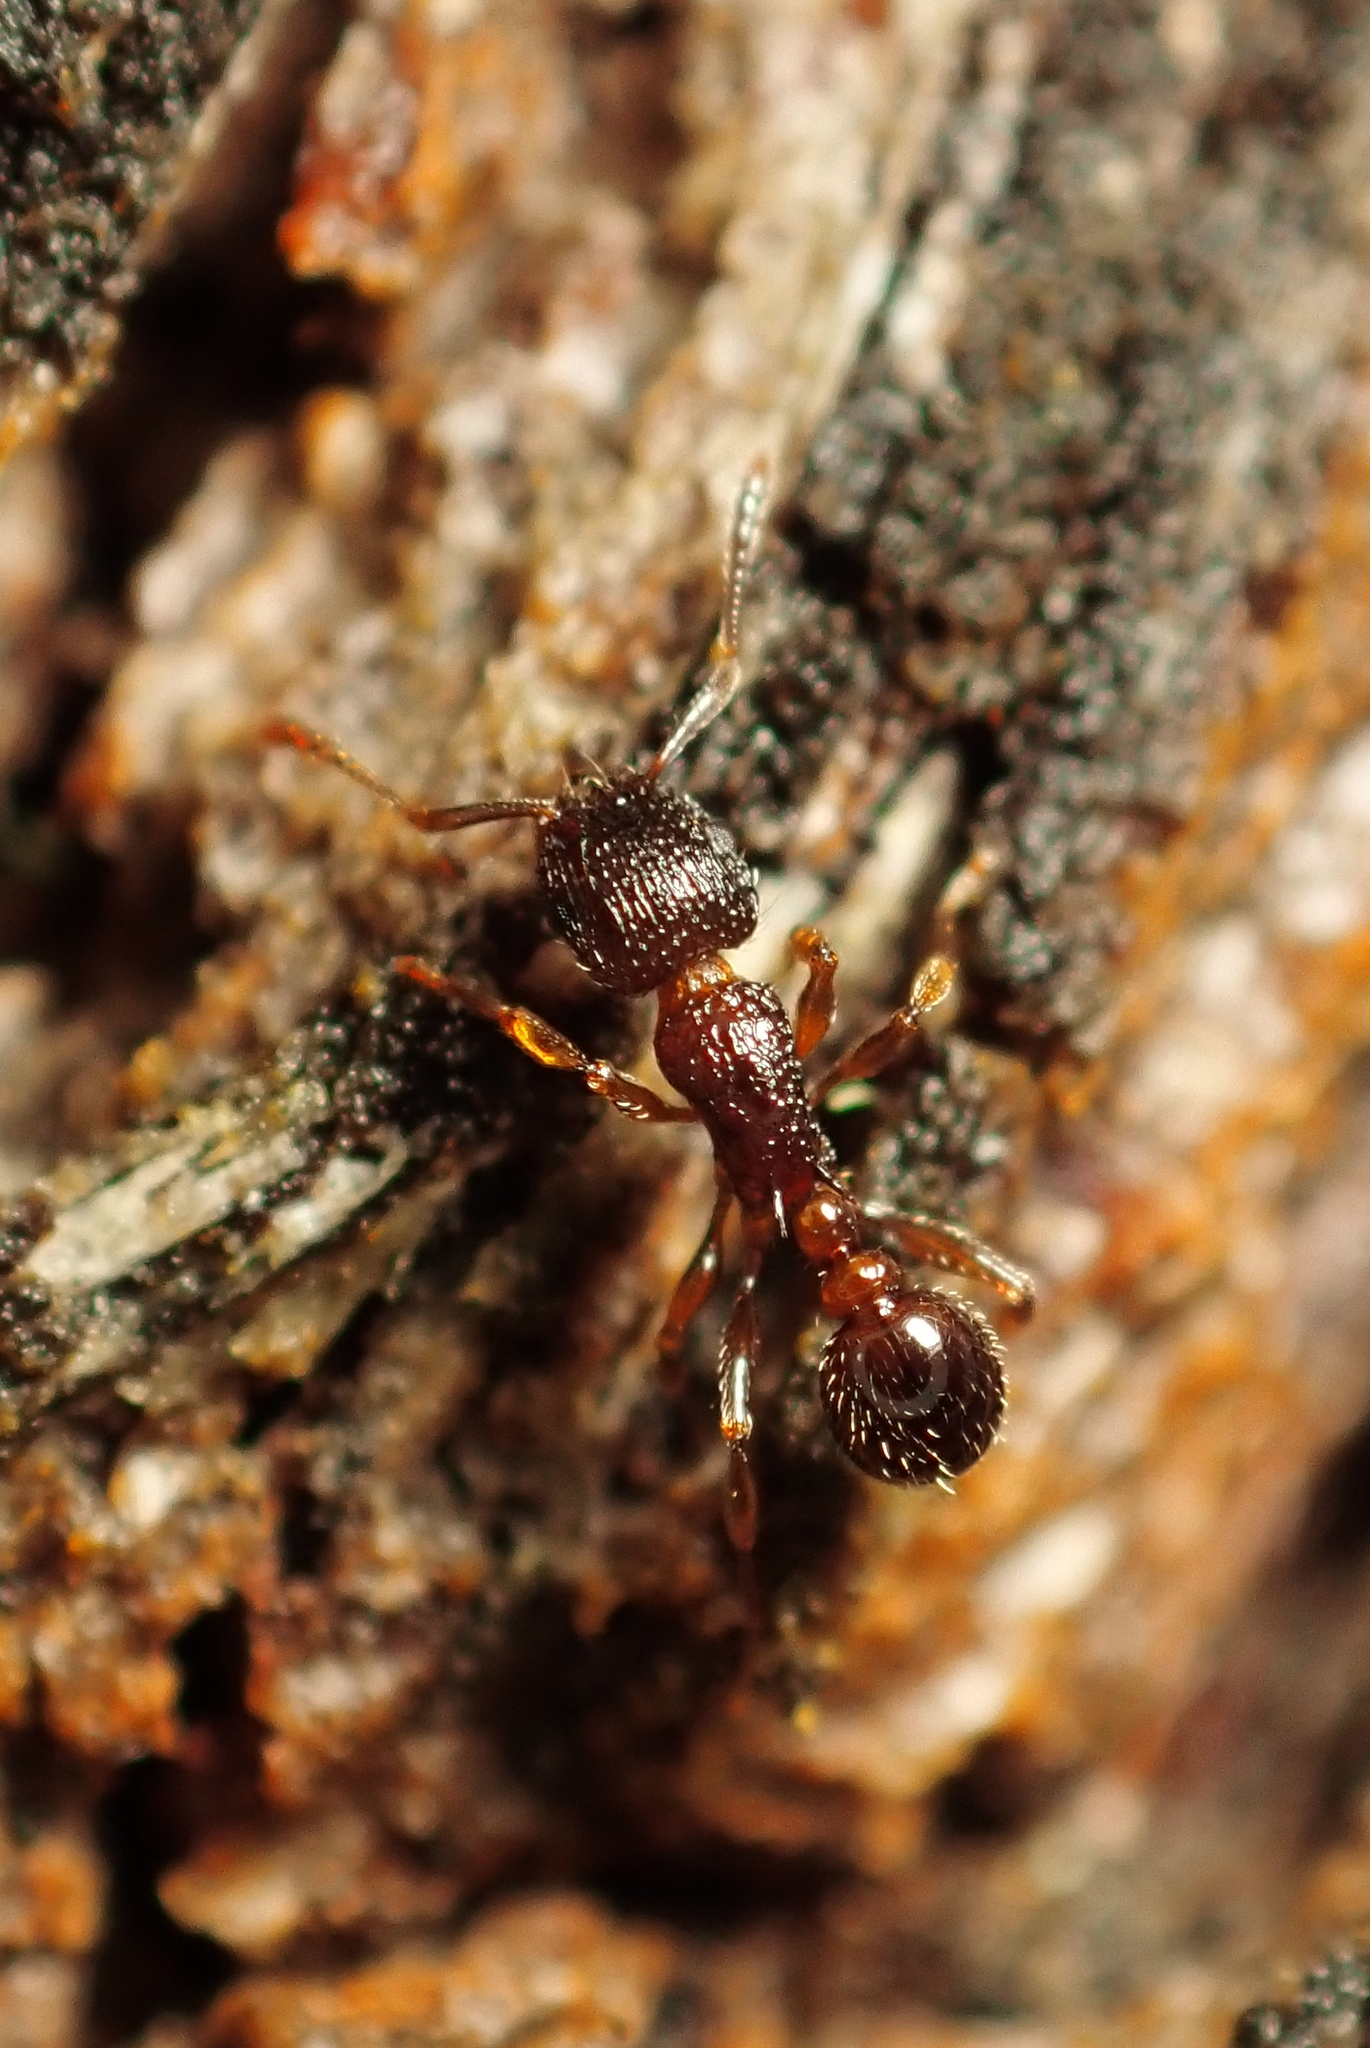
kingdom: Animalia
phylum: Arthropoda
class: Insecta
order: Hymenoptera
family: Formicidae
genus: Tetramorium
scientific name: Tetramorium grassii
